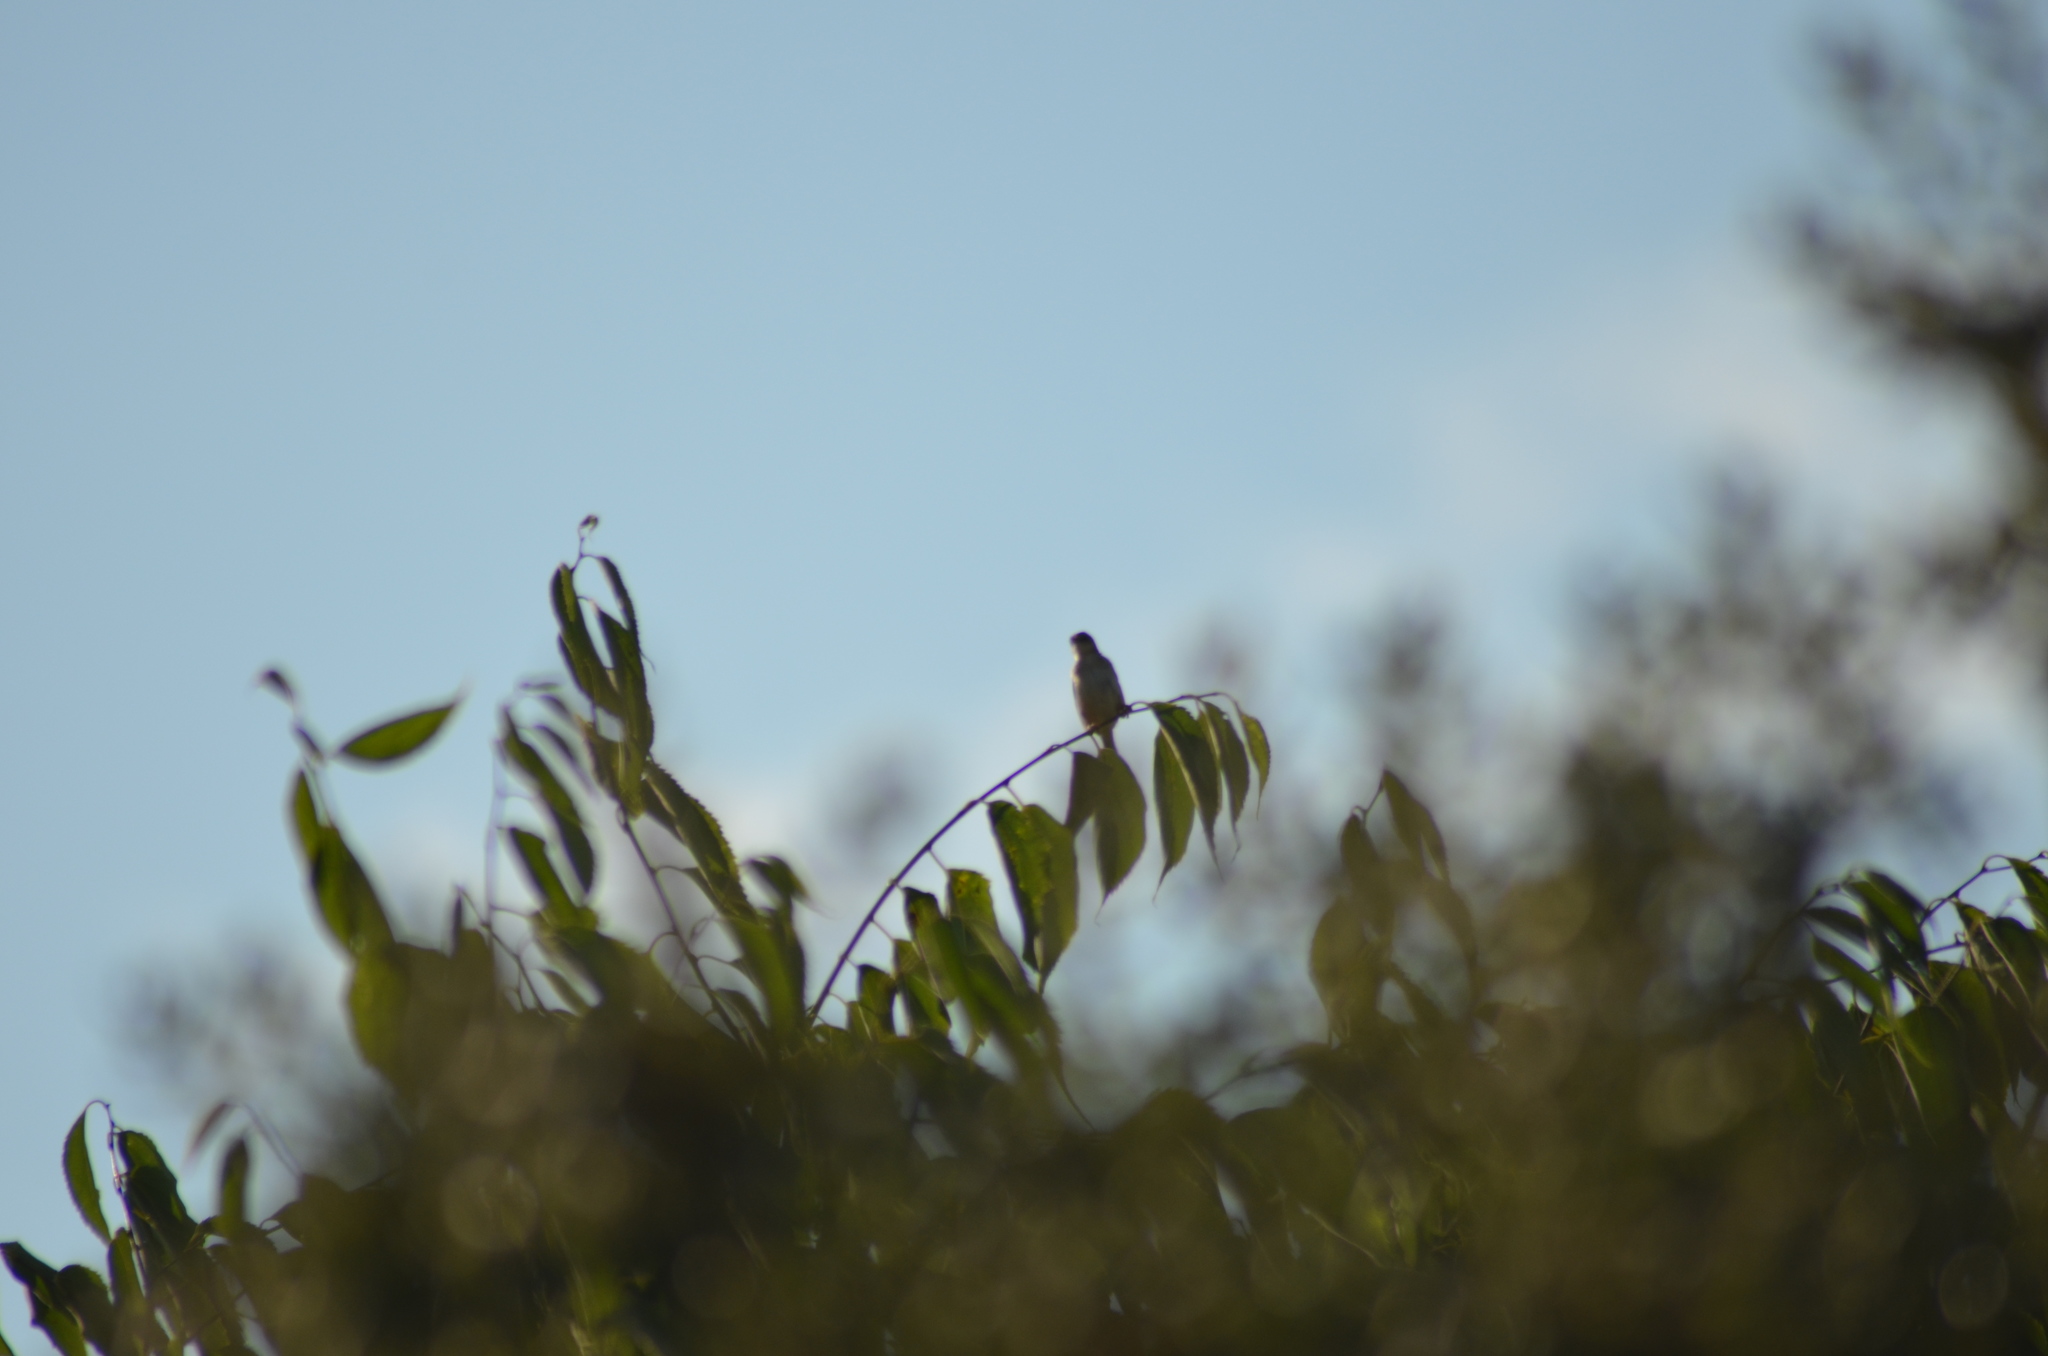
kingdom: Animalia
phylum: Chordata
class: Aves
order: Passeriformes
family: Cisticolidae
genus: Cisticola
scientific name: Cisticola juncidis
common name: Zitting cisticola
